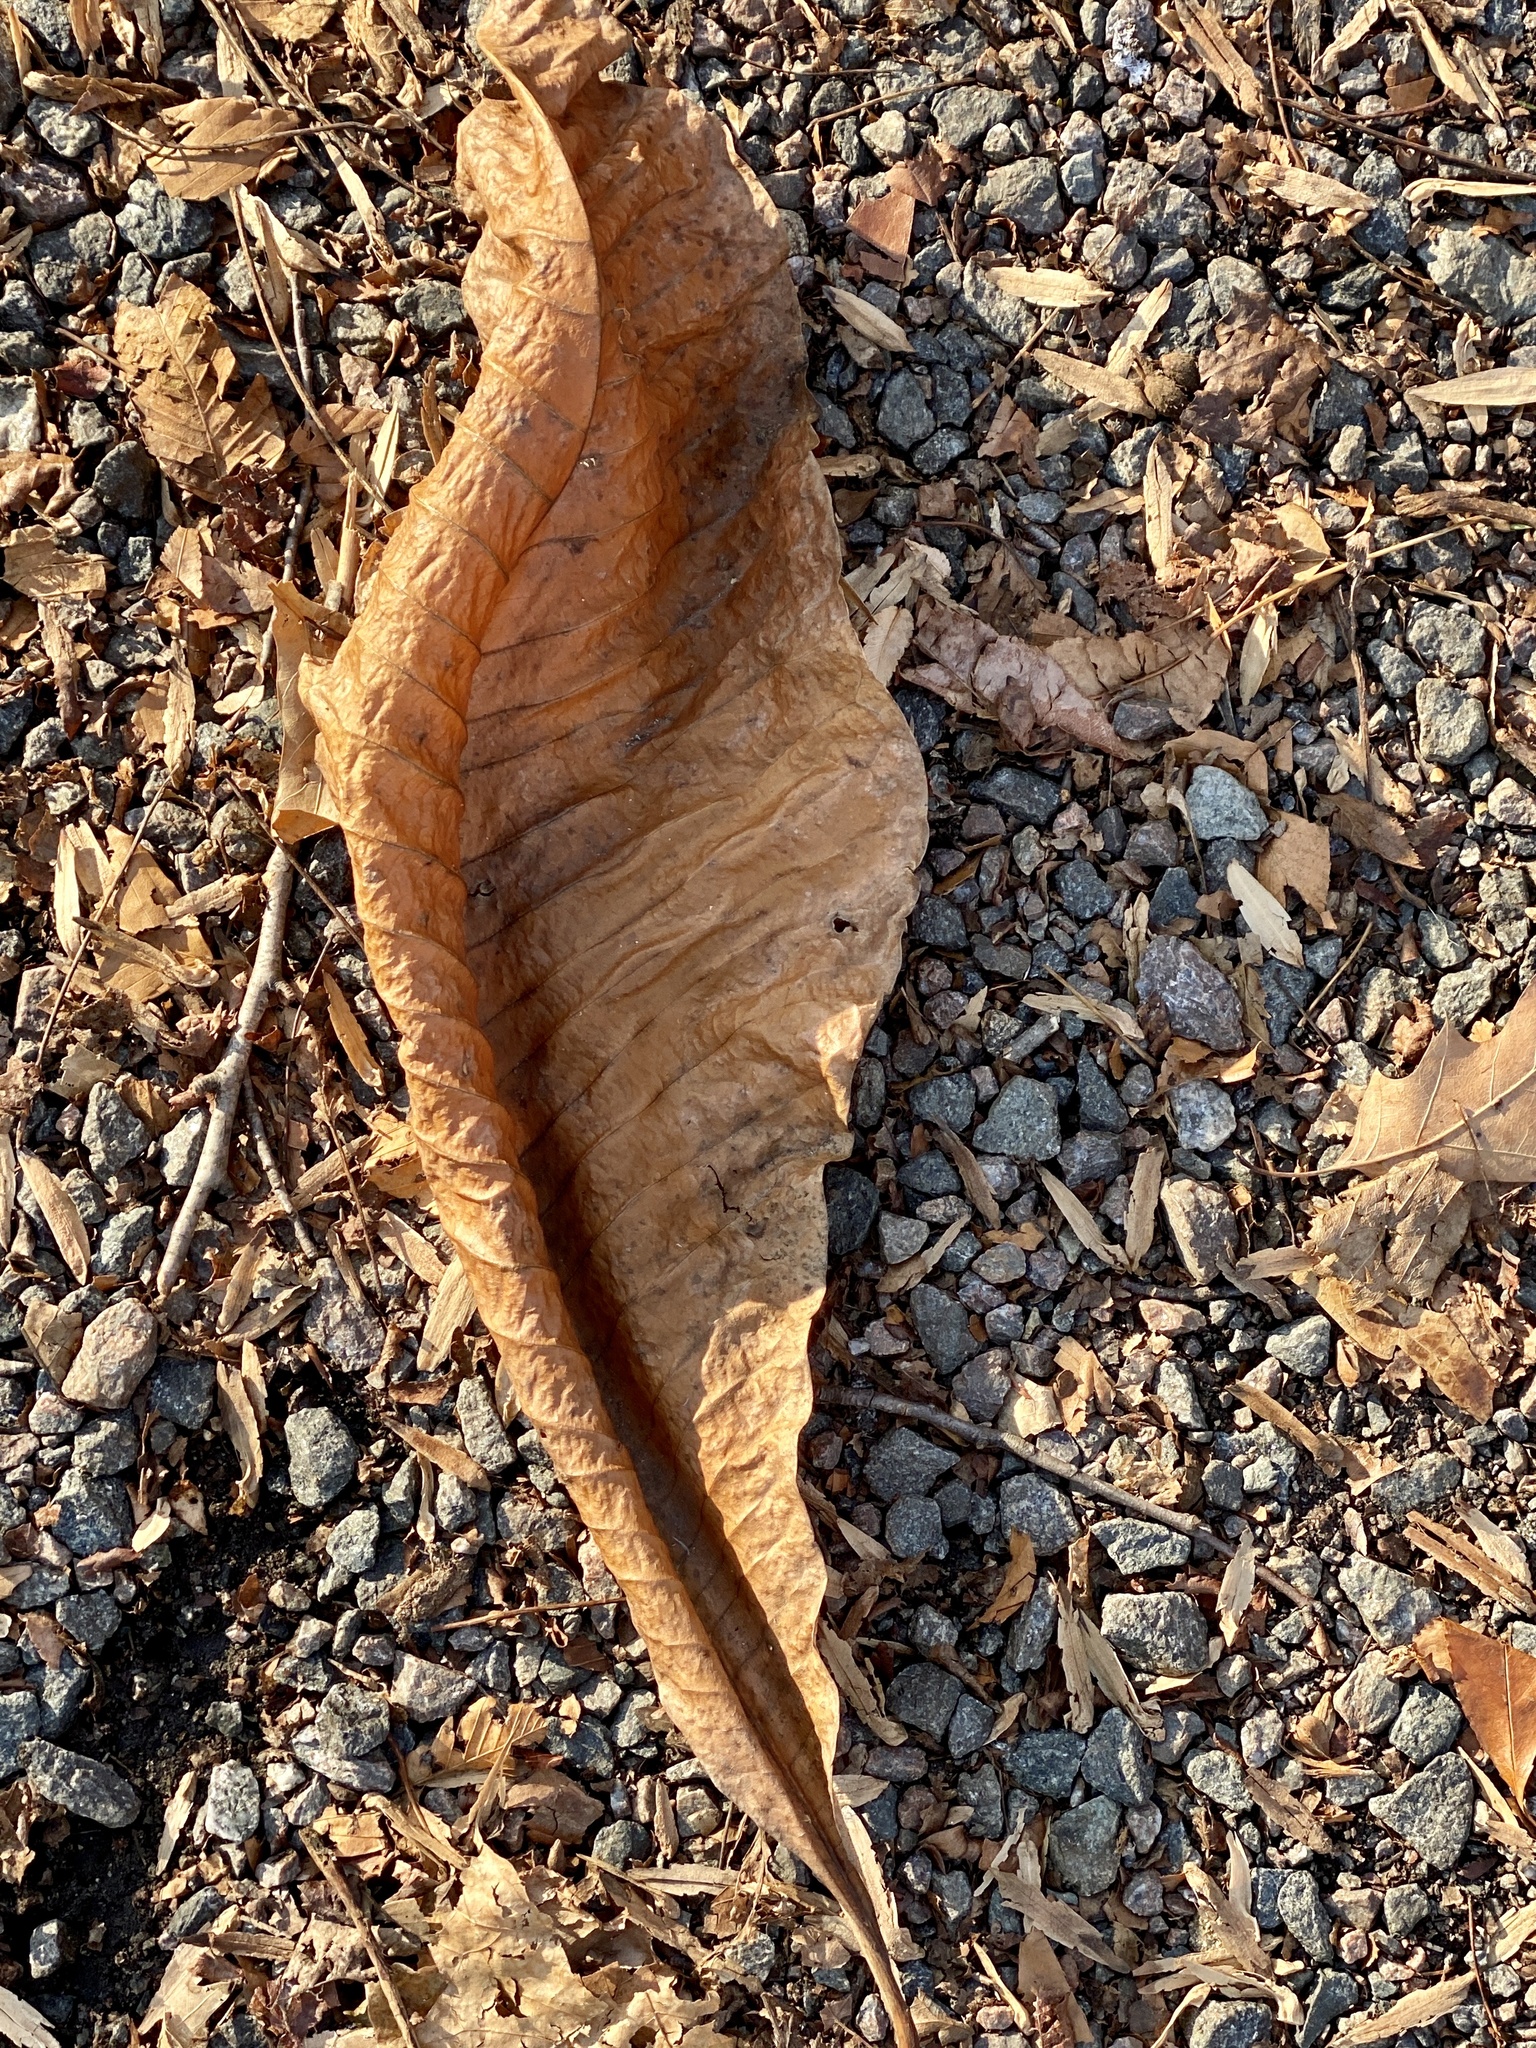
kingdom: Plantae
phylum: Tracheophyta
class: Magnoliopsida
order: Magnoliales
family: Magnoliaceae
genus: Magnolia
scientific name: Magnolia tripetala
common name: Umbrella magnolia
